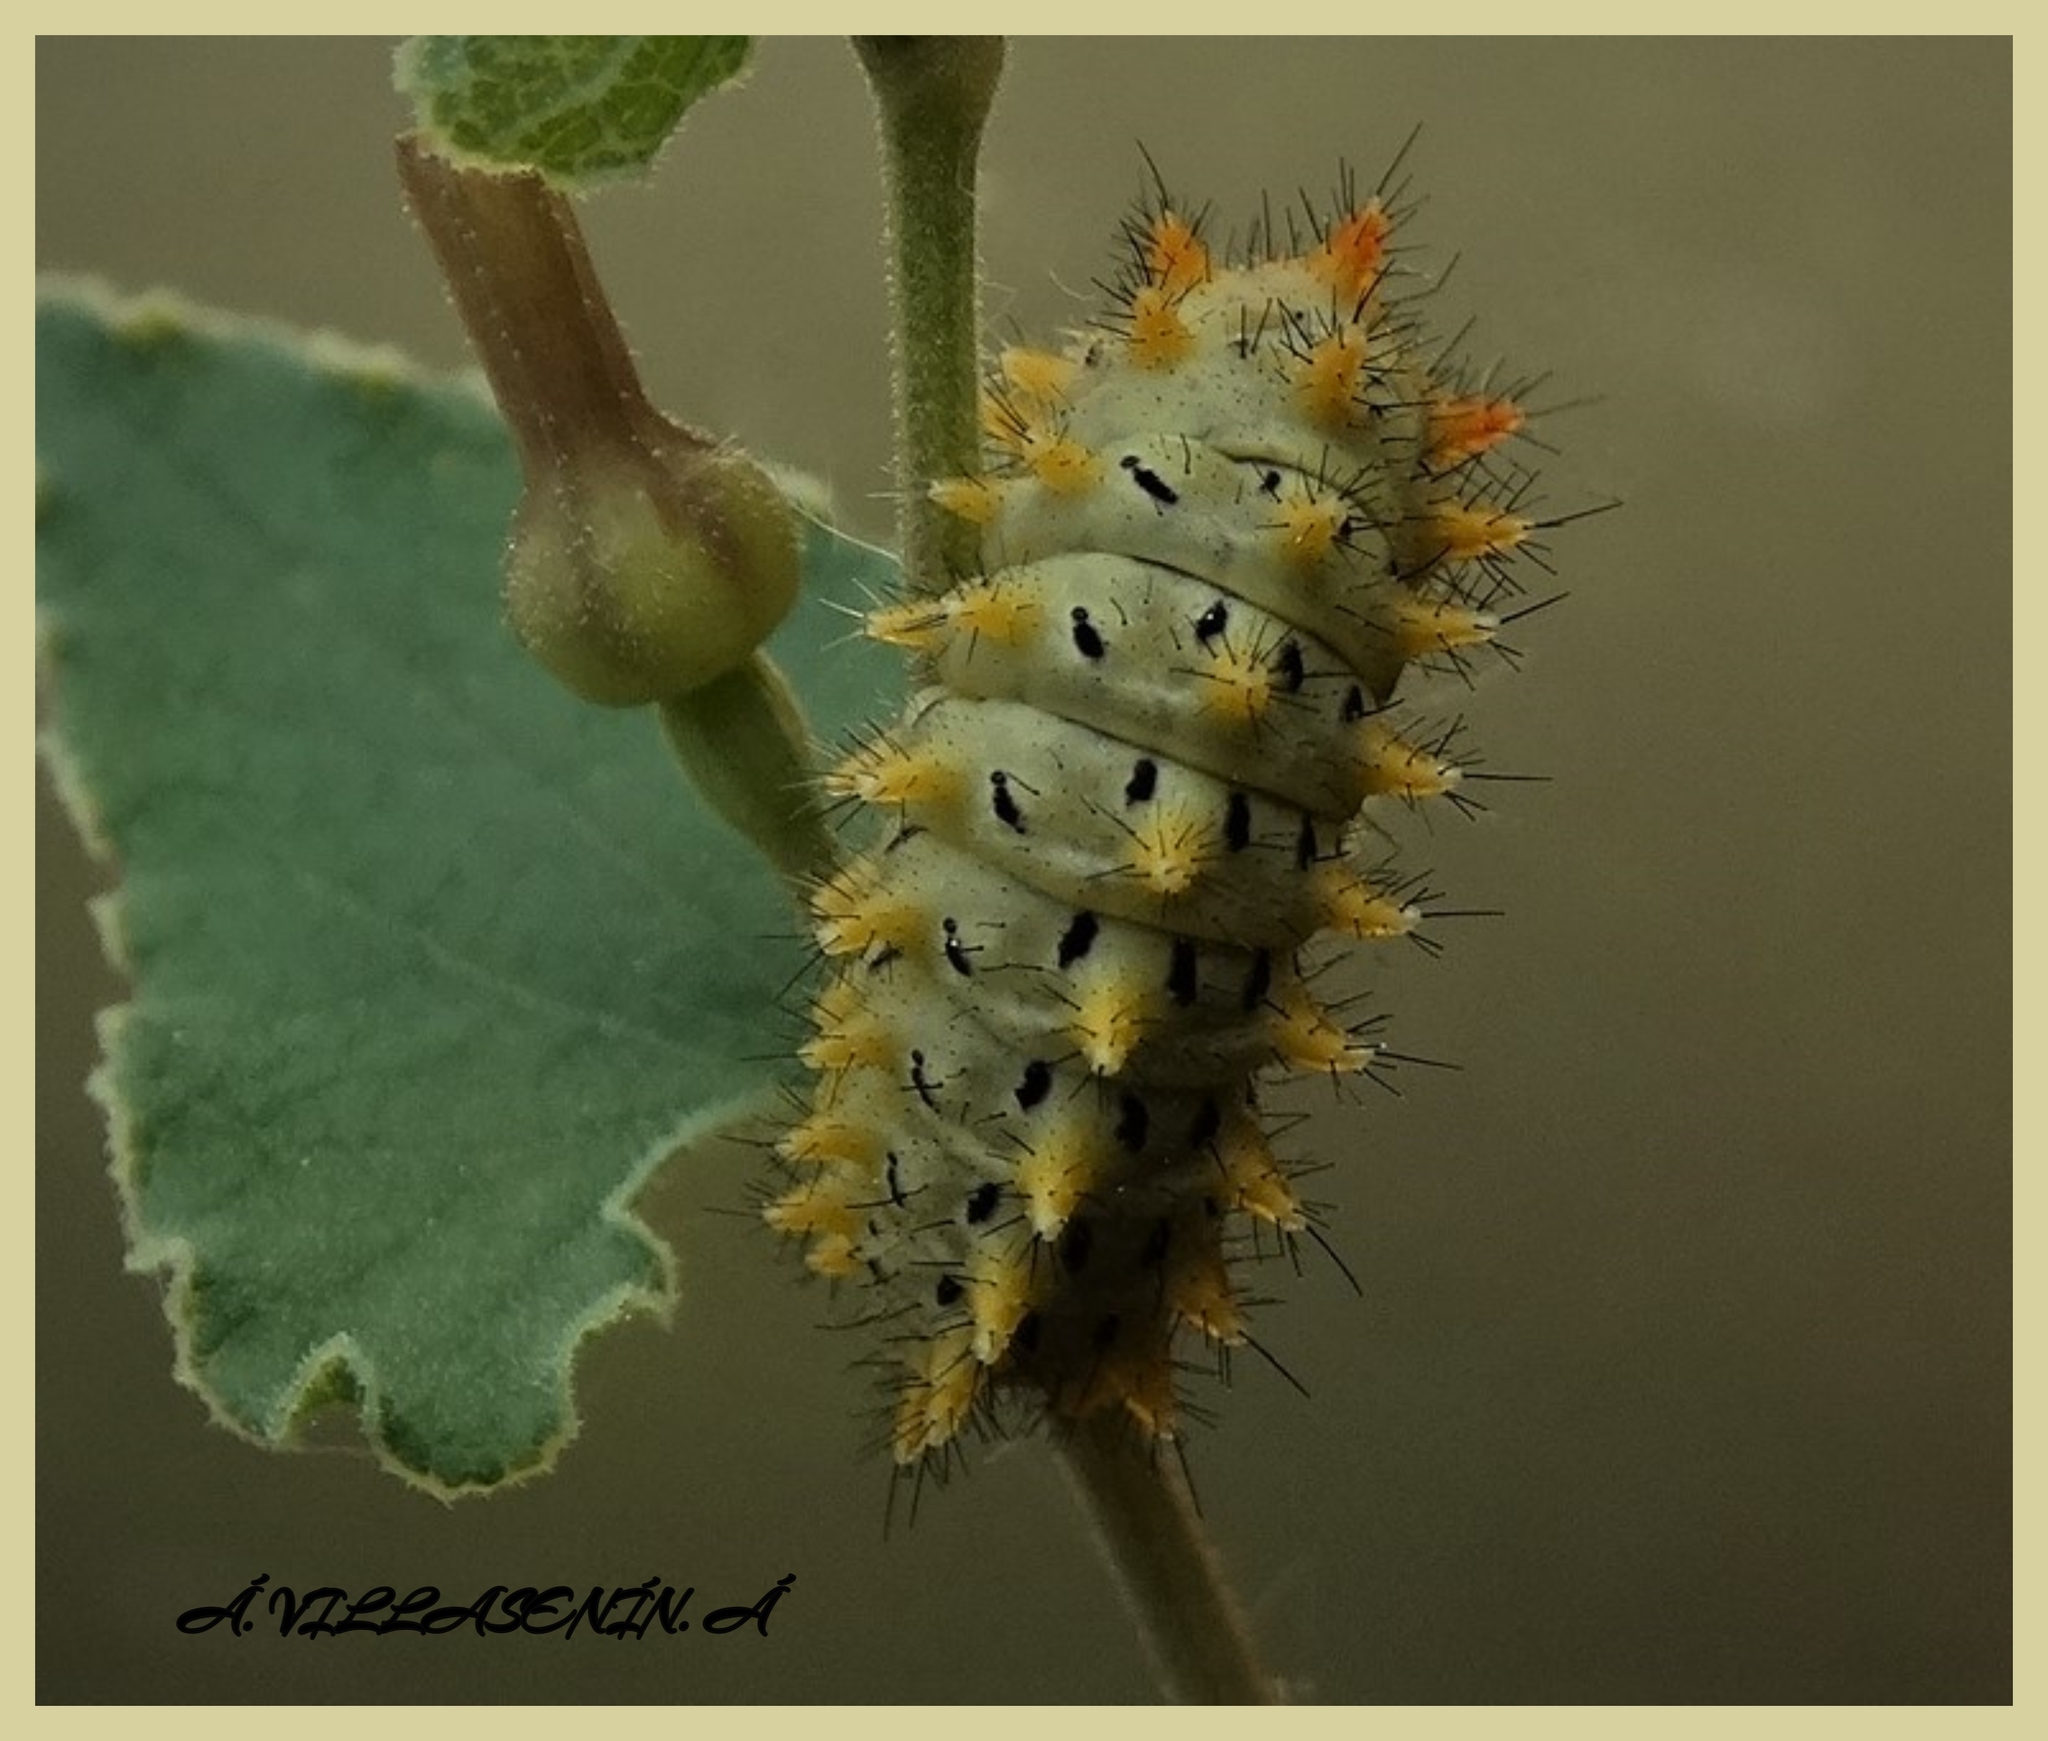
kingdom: Animalia
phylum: Arthropoda
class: Insecta
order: Lepidoptera
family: Papilionidae
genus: Zerynthia
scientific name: Zerynthia rumina
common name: Spanish festoon
